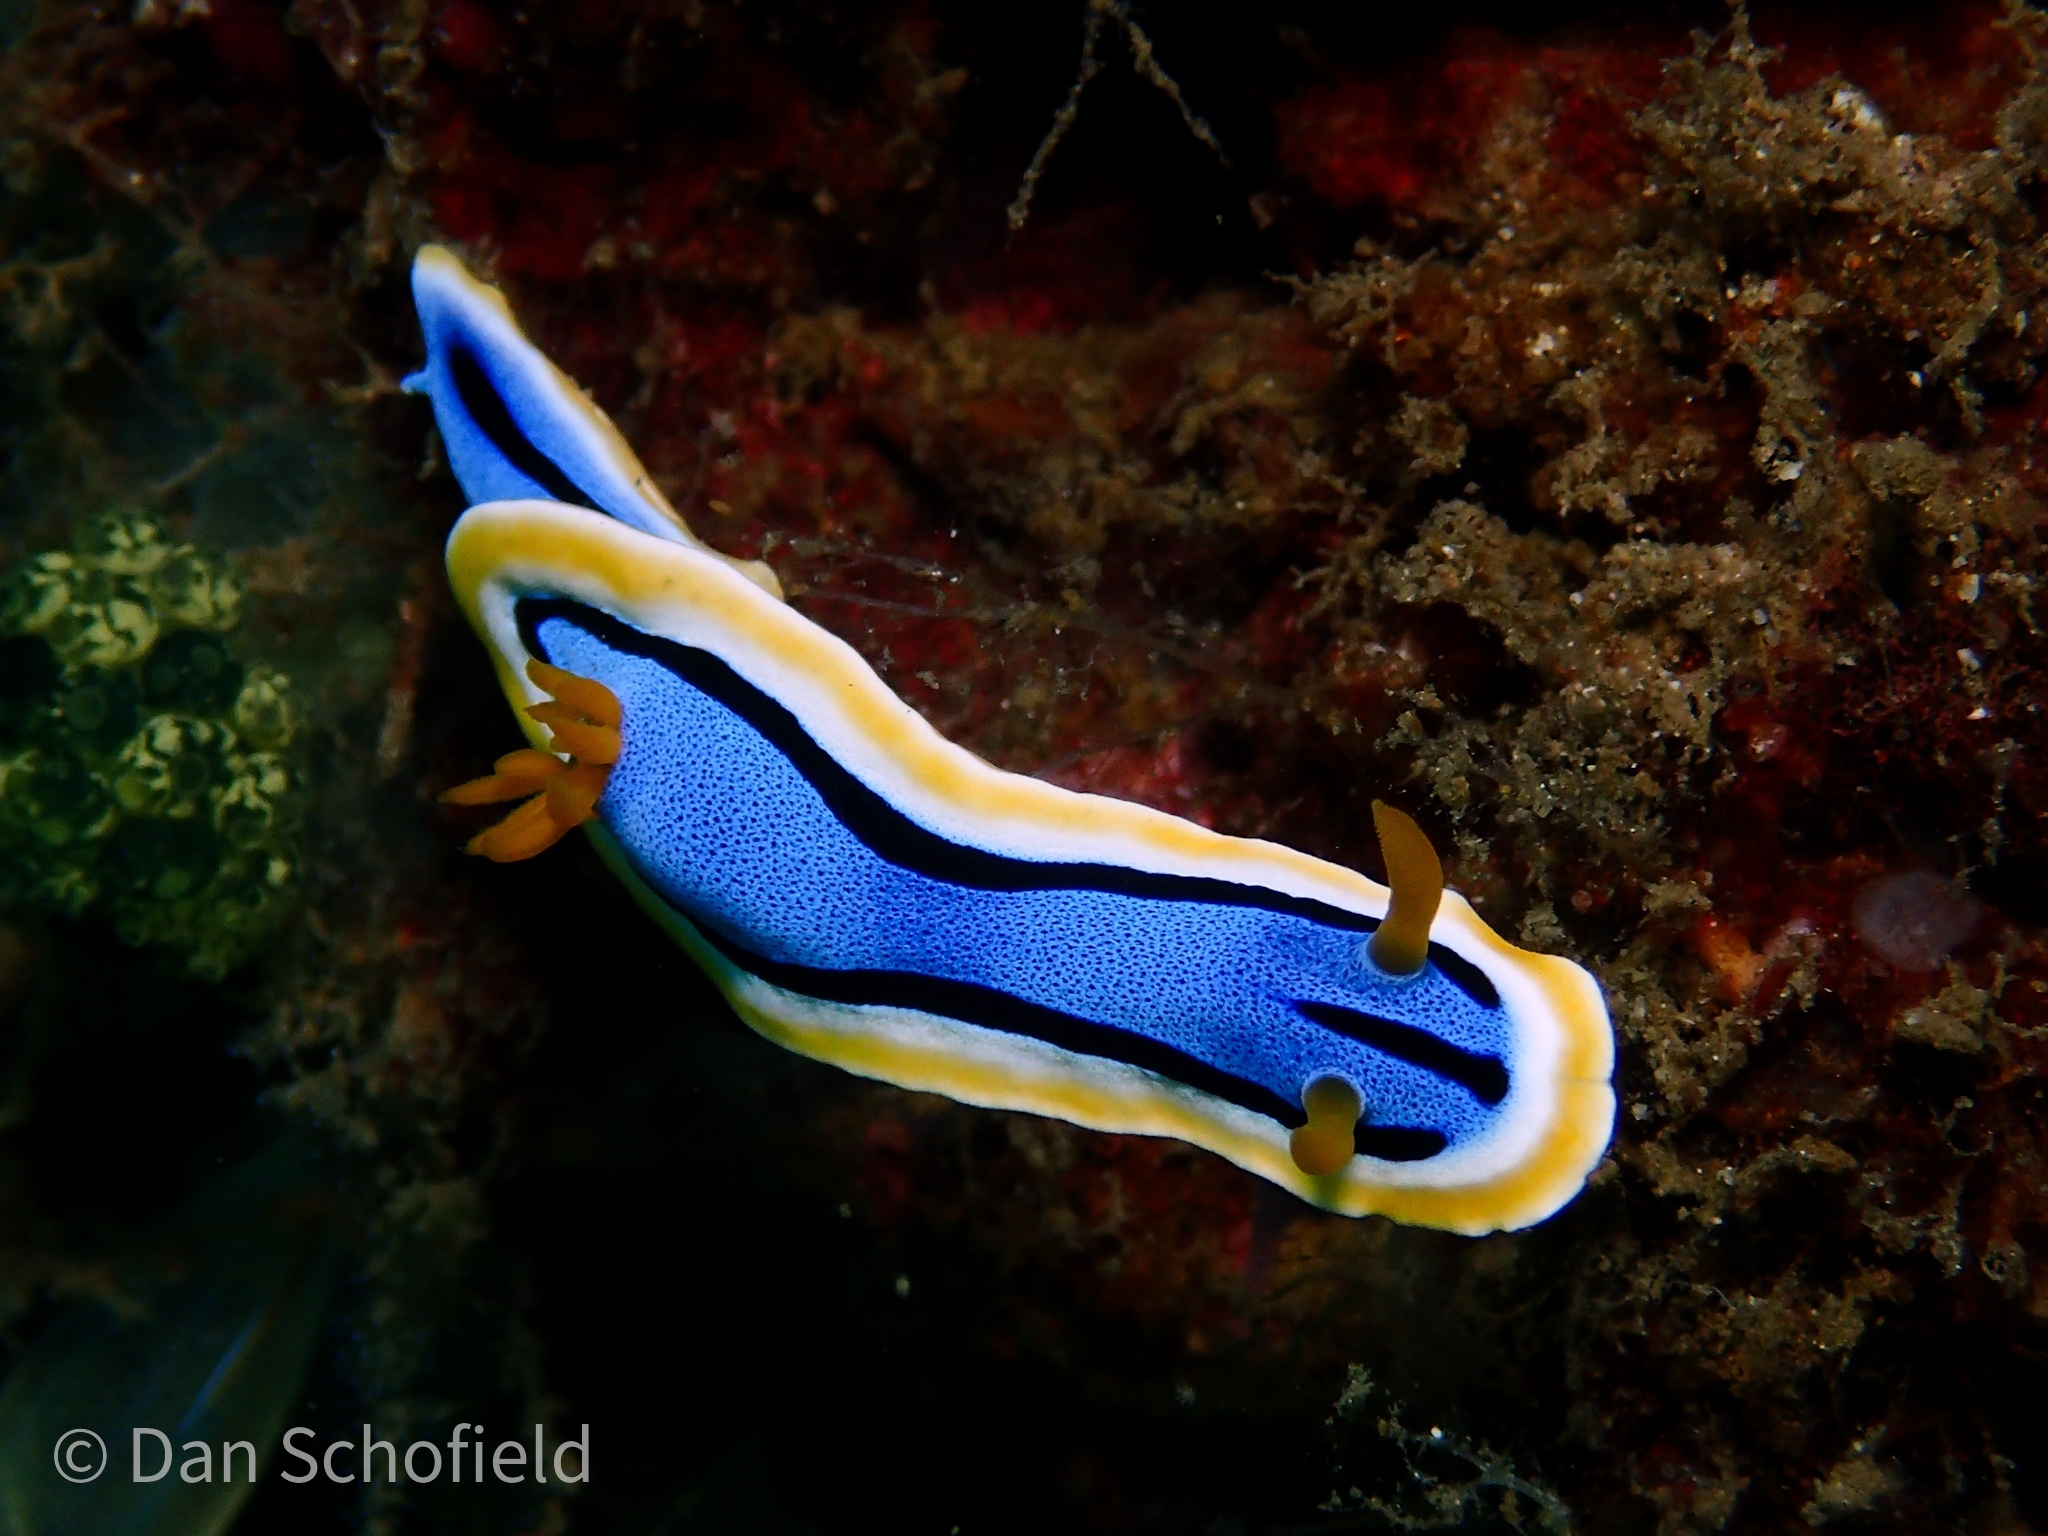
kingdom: Animalia
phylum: Mollusca
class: Gastropoda
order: Nudibranchia
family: Chromodorididae
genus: Chromodoris
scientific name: Chromodoris annae
